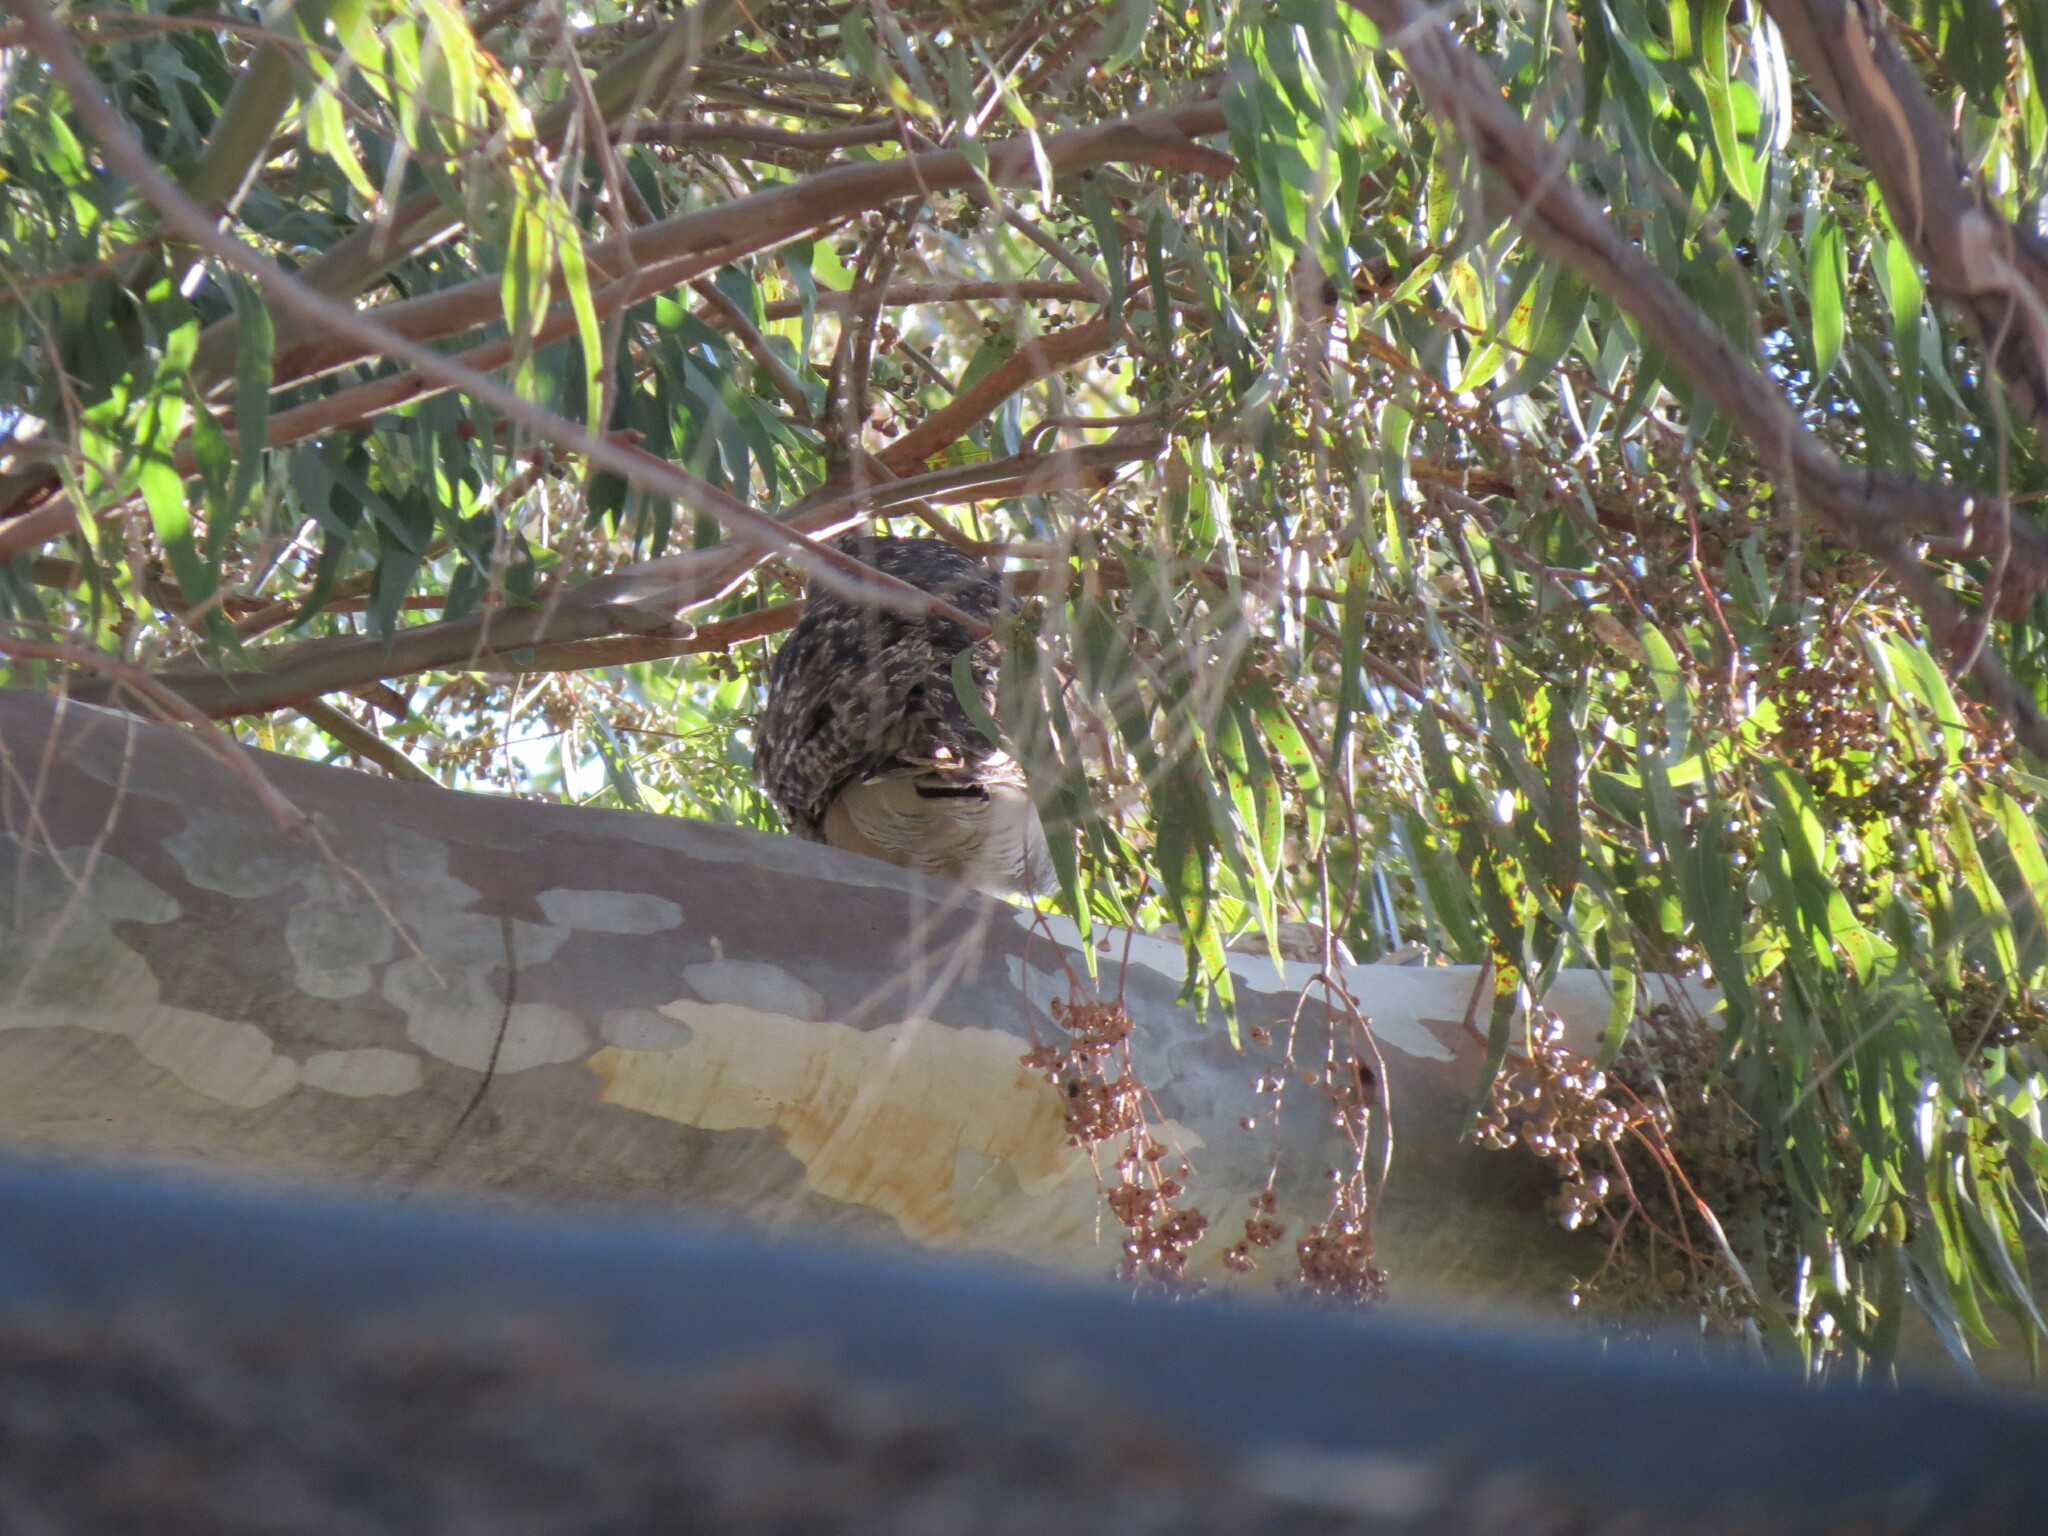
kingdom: Animalia
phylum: Chordata
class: Aves
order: Strigiformes
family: Strigidae
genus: Bubo
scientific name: Bubo africanus
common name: Spotted eagle-owl
